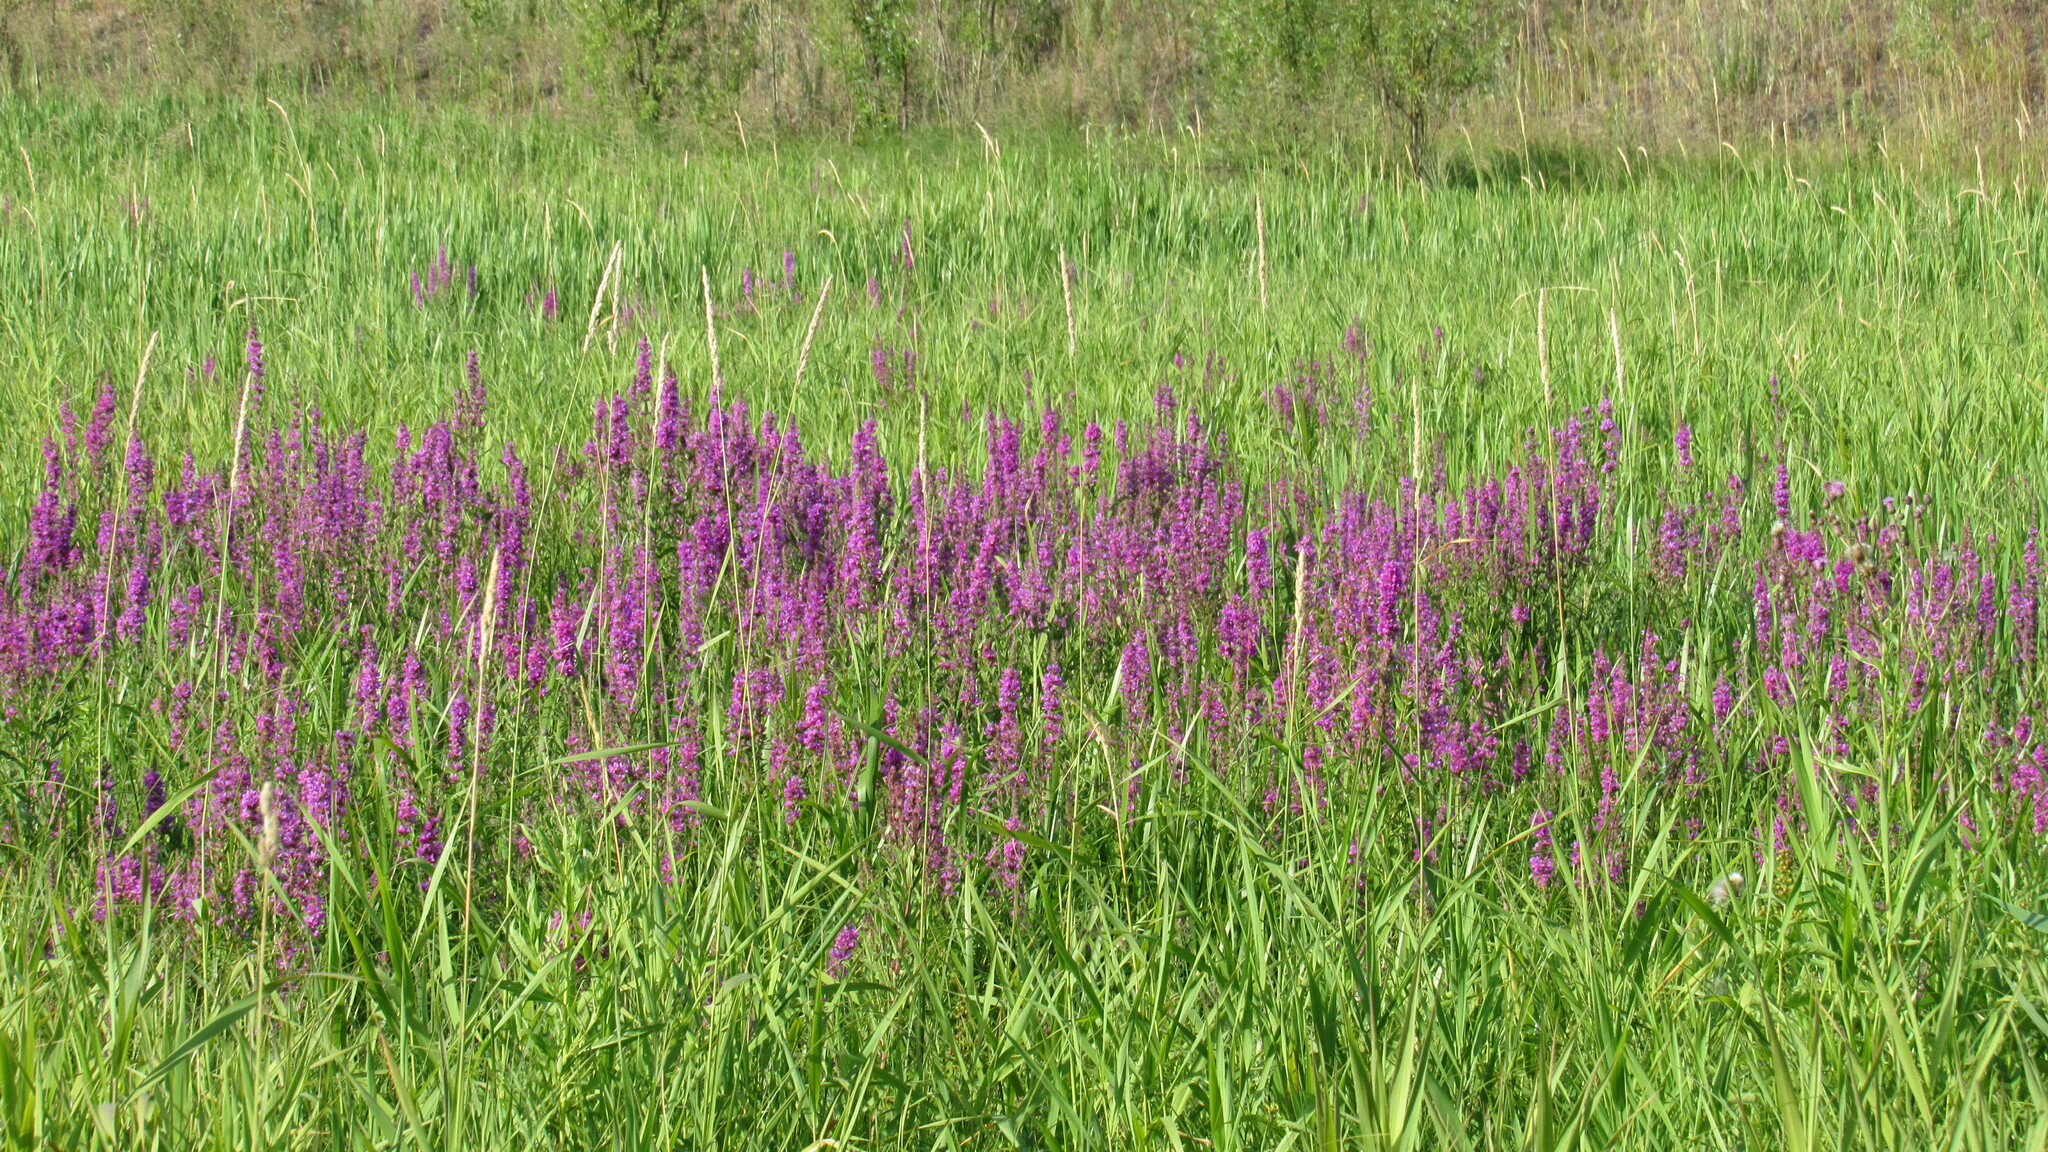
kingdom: Plantae
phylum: Tracheophyta
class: Magnoliopsida
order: Myrtales
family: Lythraceae
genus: Lythrum
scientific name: Lythrum salicaria
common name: Purple loosestrife
